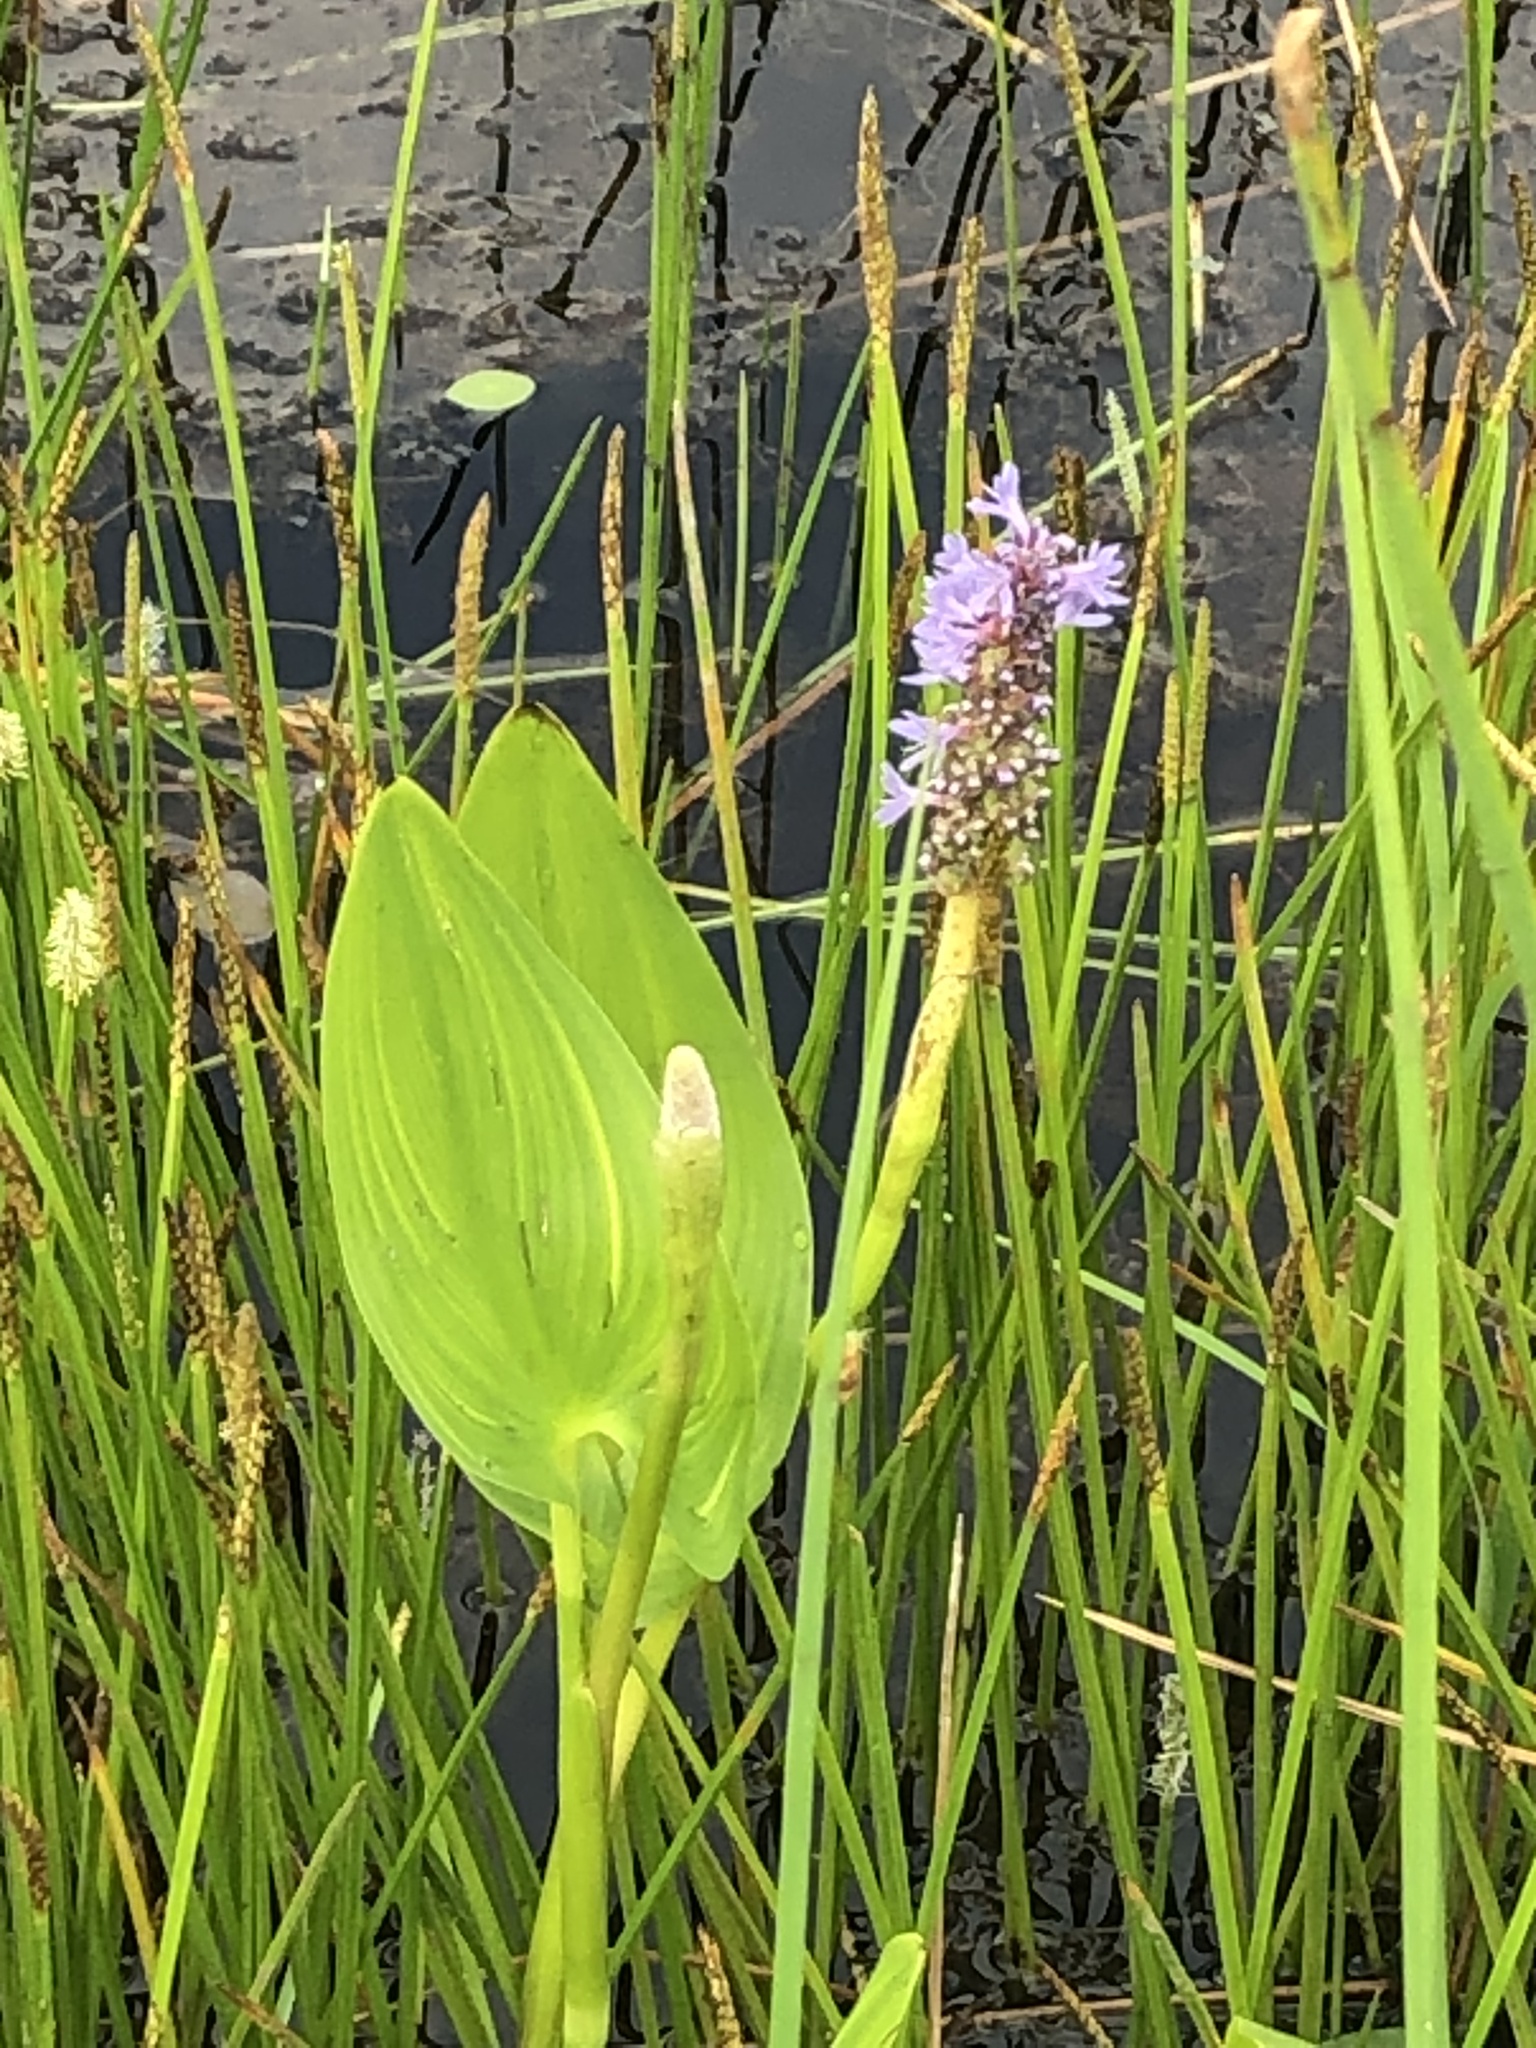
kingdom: Plantae
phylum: Tracheophyta
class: Liliopsida
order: Commelinales
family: Pontederiaceae
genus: Pontederia
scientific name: Pontederia cordata
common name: Pickerelweed
